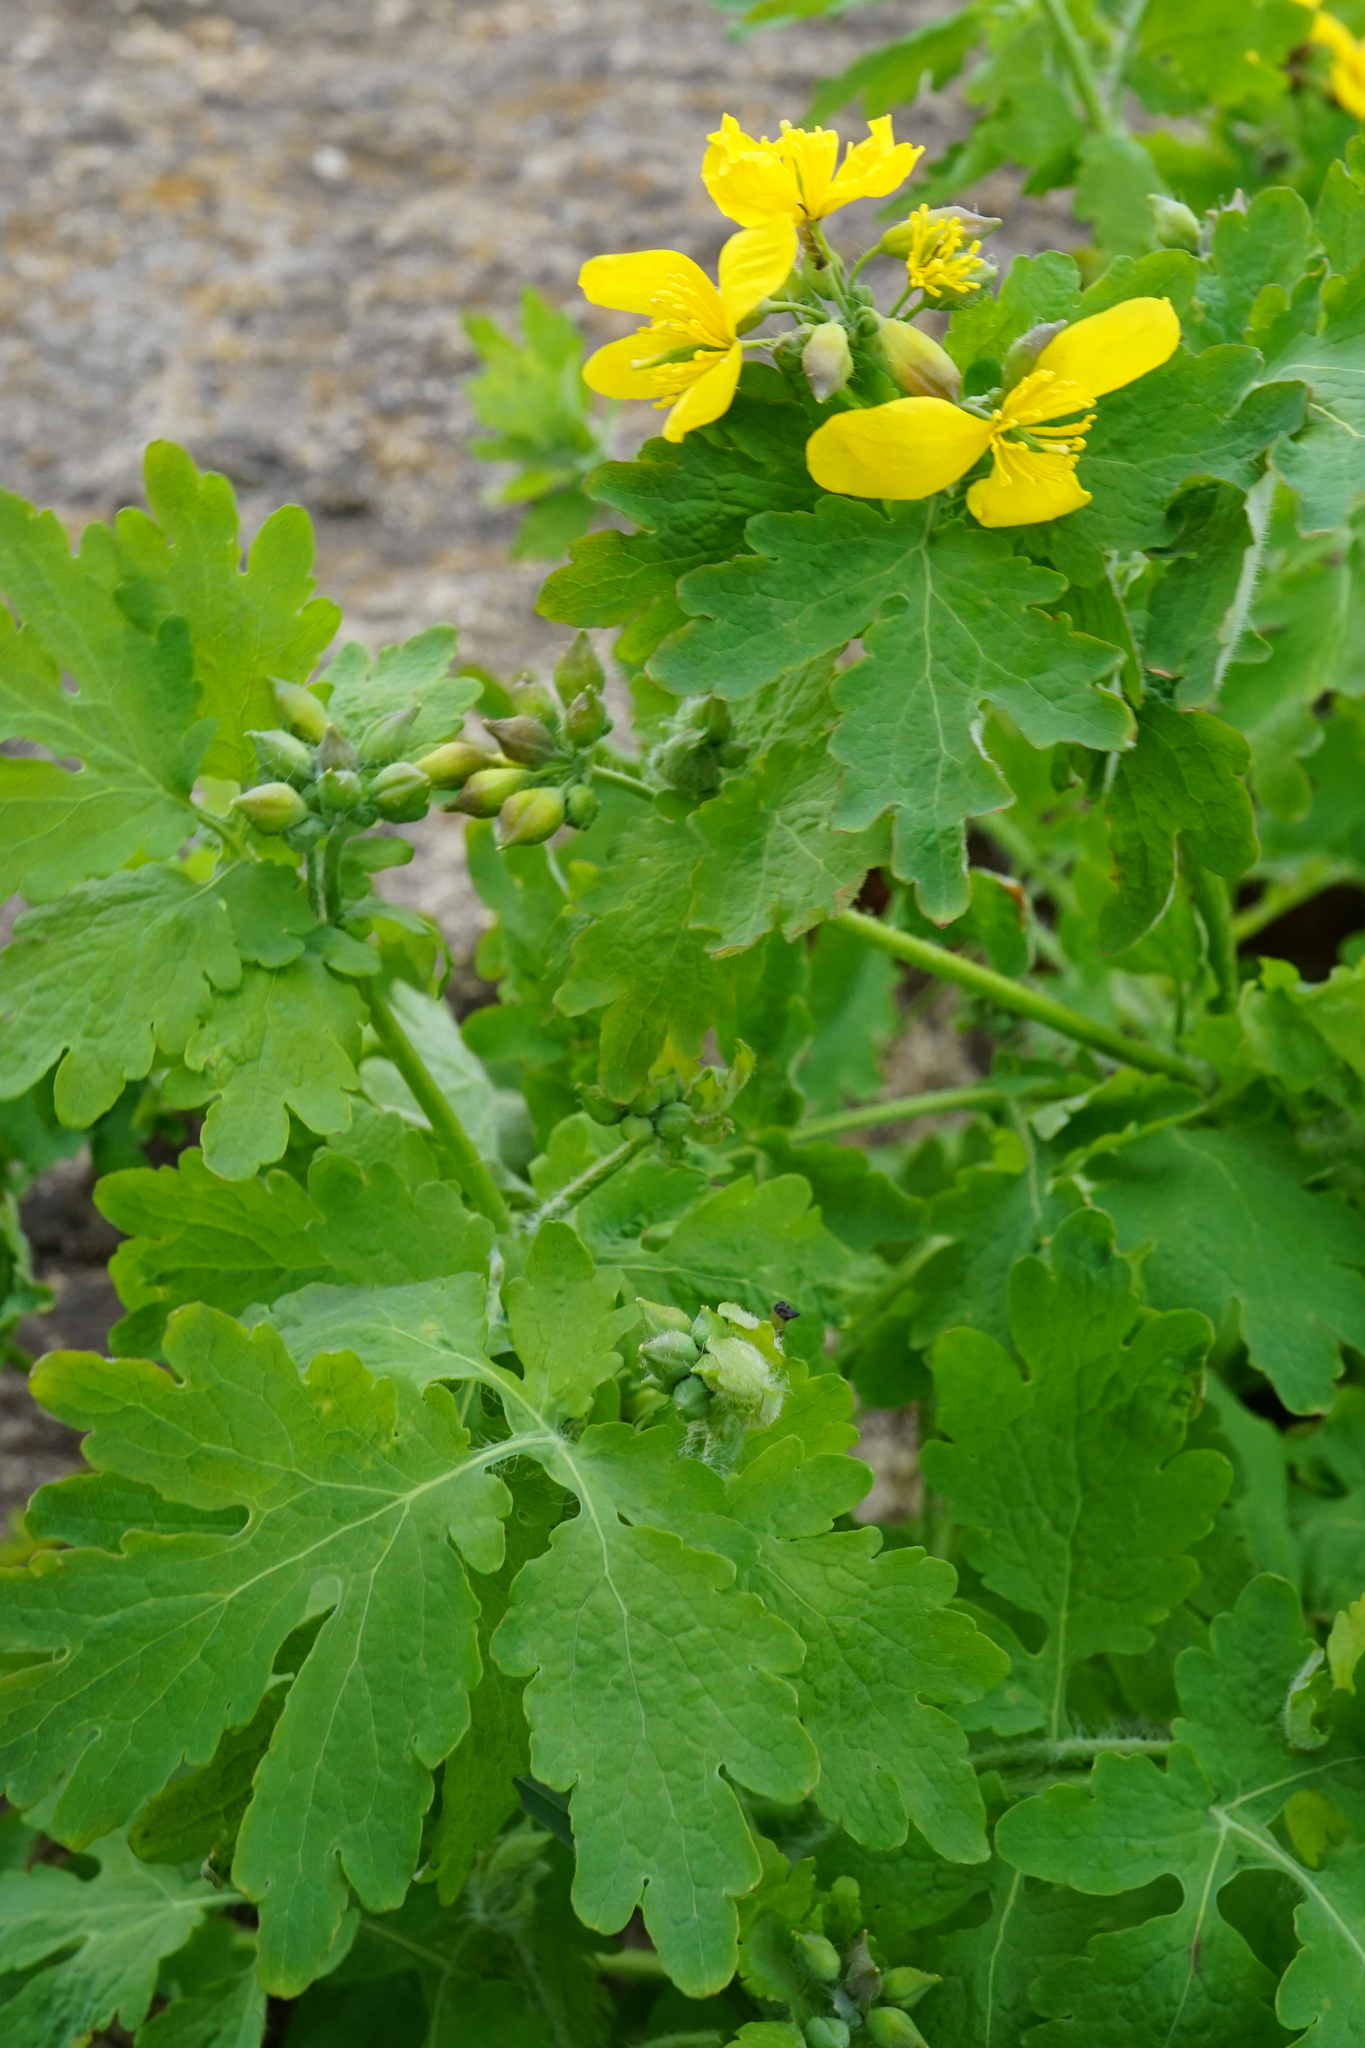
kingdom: Plantae
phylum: Tracheophyta
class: Magnoliopsida
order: Ranunculales
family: Papaveraceae
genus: Chelidonium
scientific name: Chelidonium majus
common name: Greater celandine
